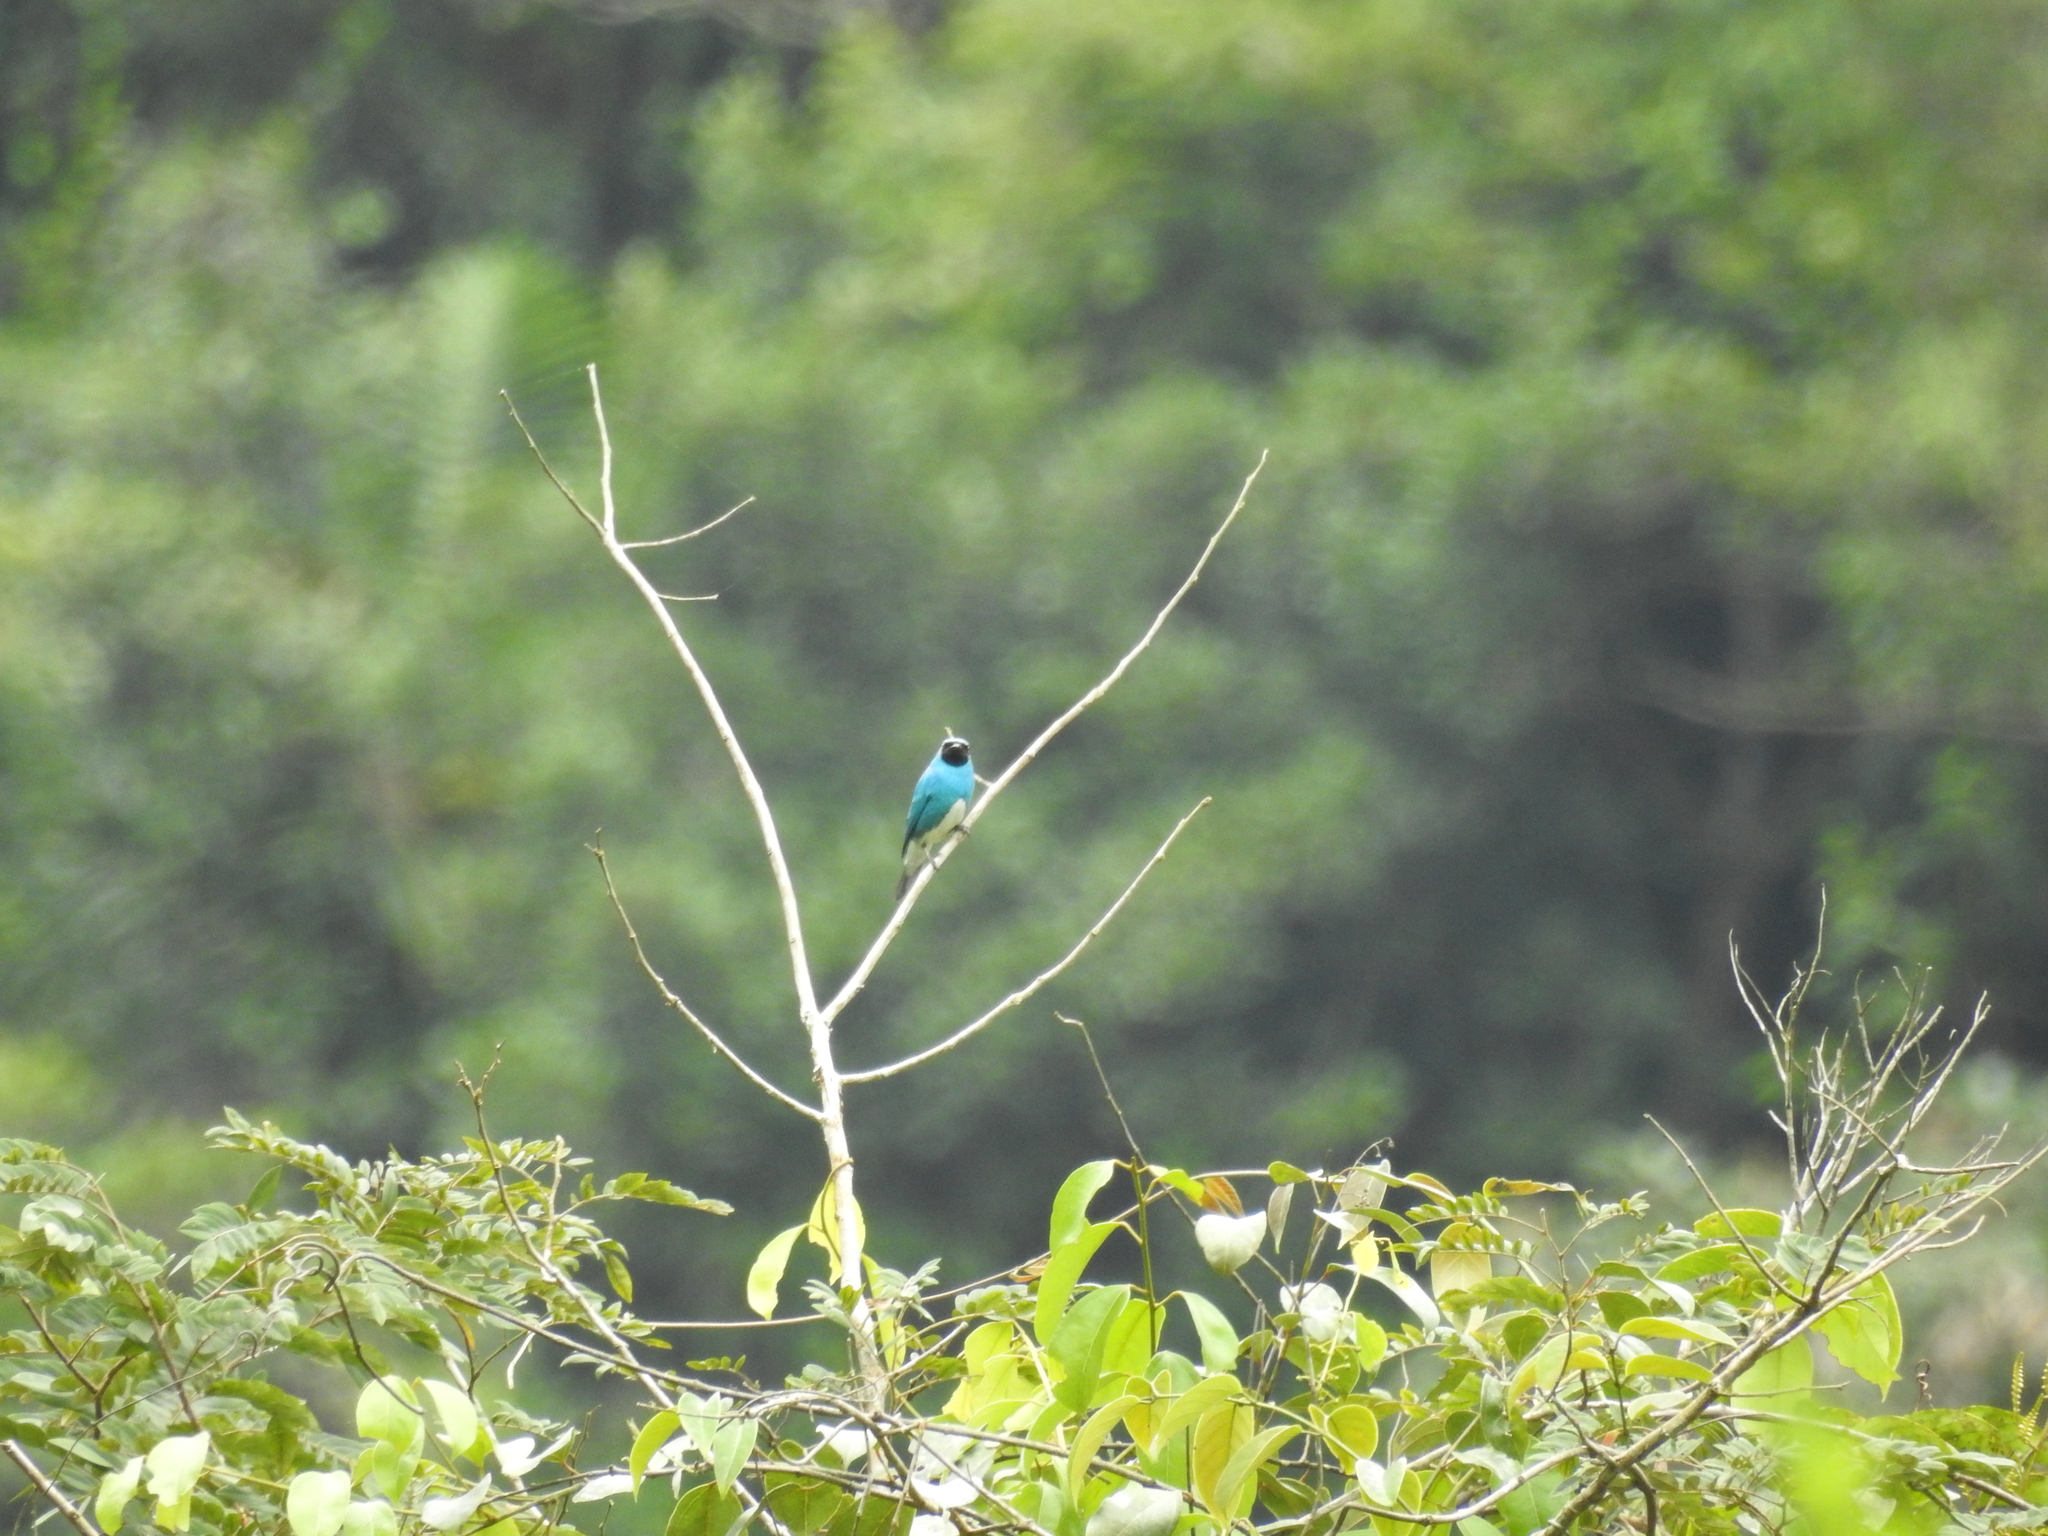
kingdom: Animalia
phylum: Chordata
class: Aves
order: Passeriformes
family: Thraupidae
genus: Tersina
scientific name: Tersina viridis
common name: Swallow tanager
